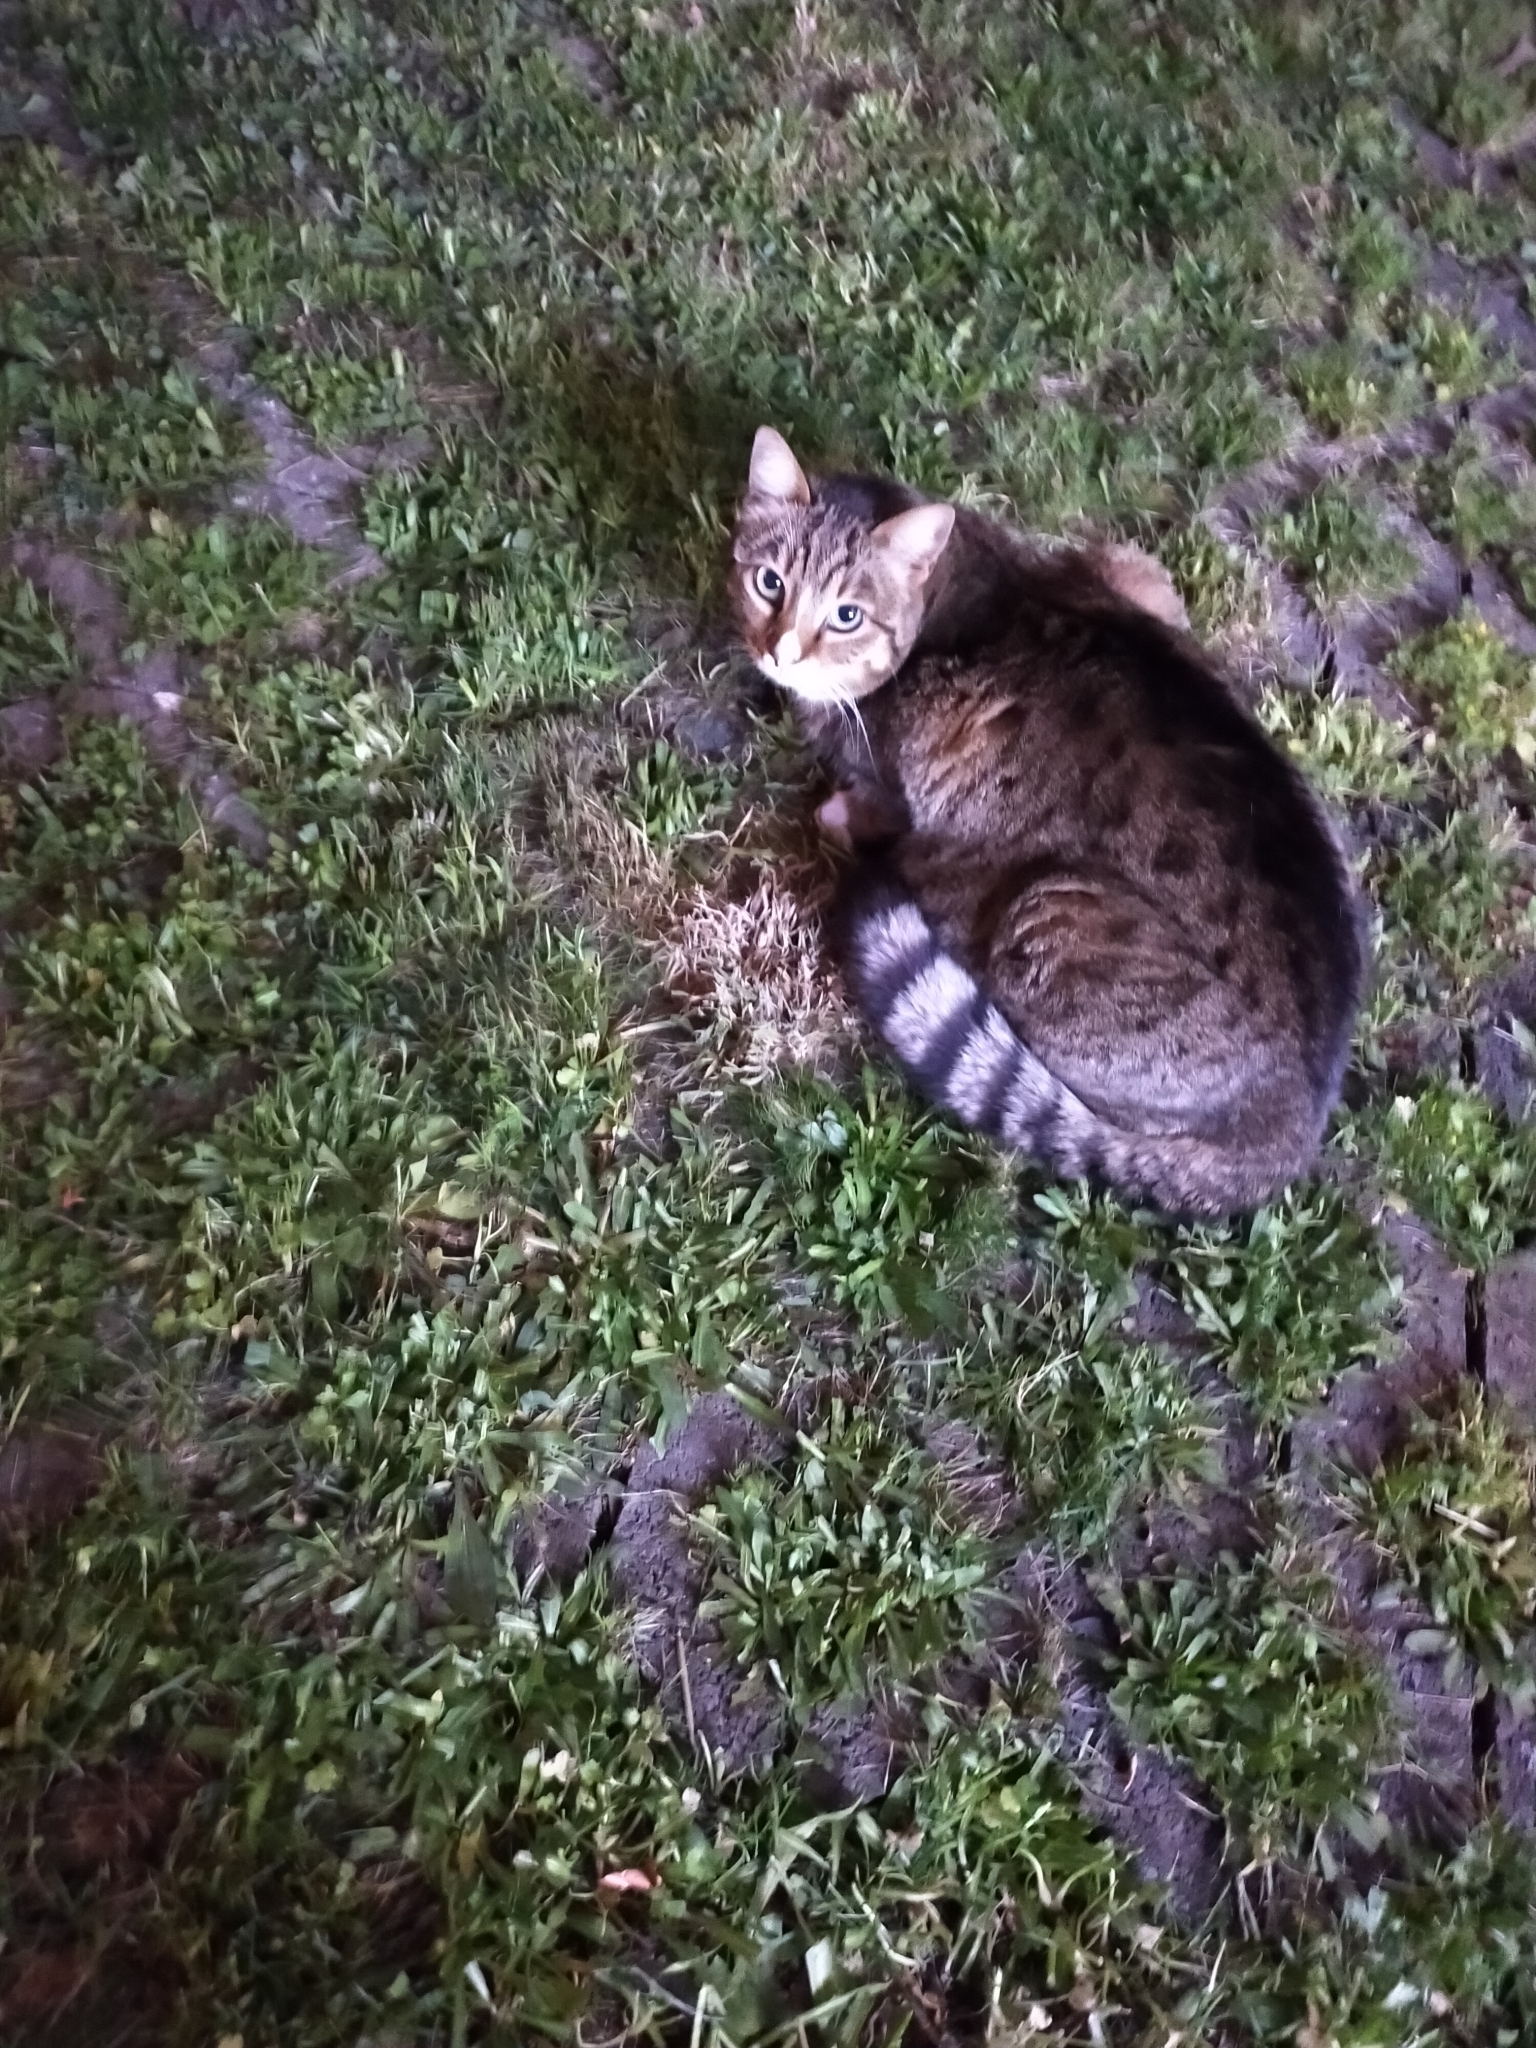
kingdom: Animalia
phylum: Chordata
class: Mammalia
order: Carnivora
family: Felidae
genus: Felis
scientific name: Felis catus
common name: Domestic cat
